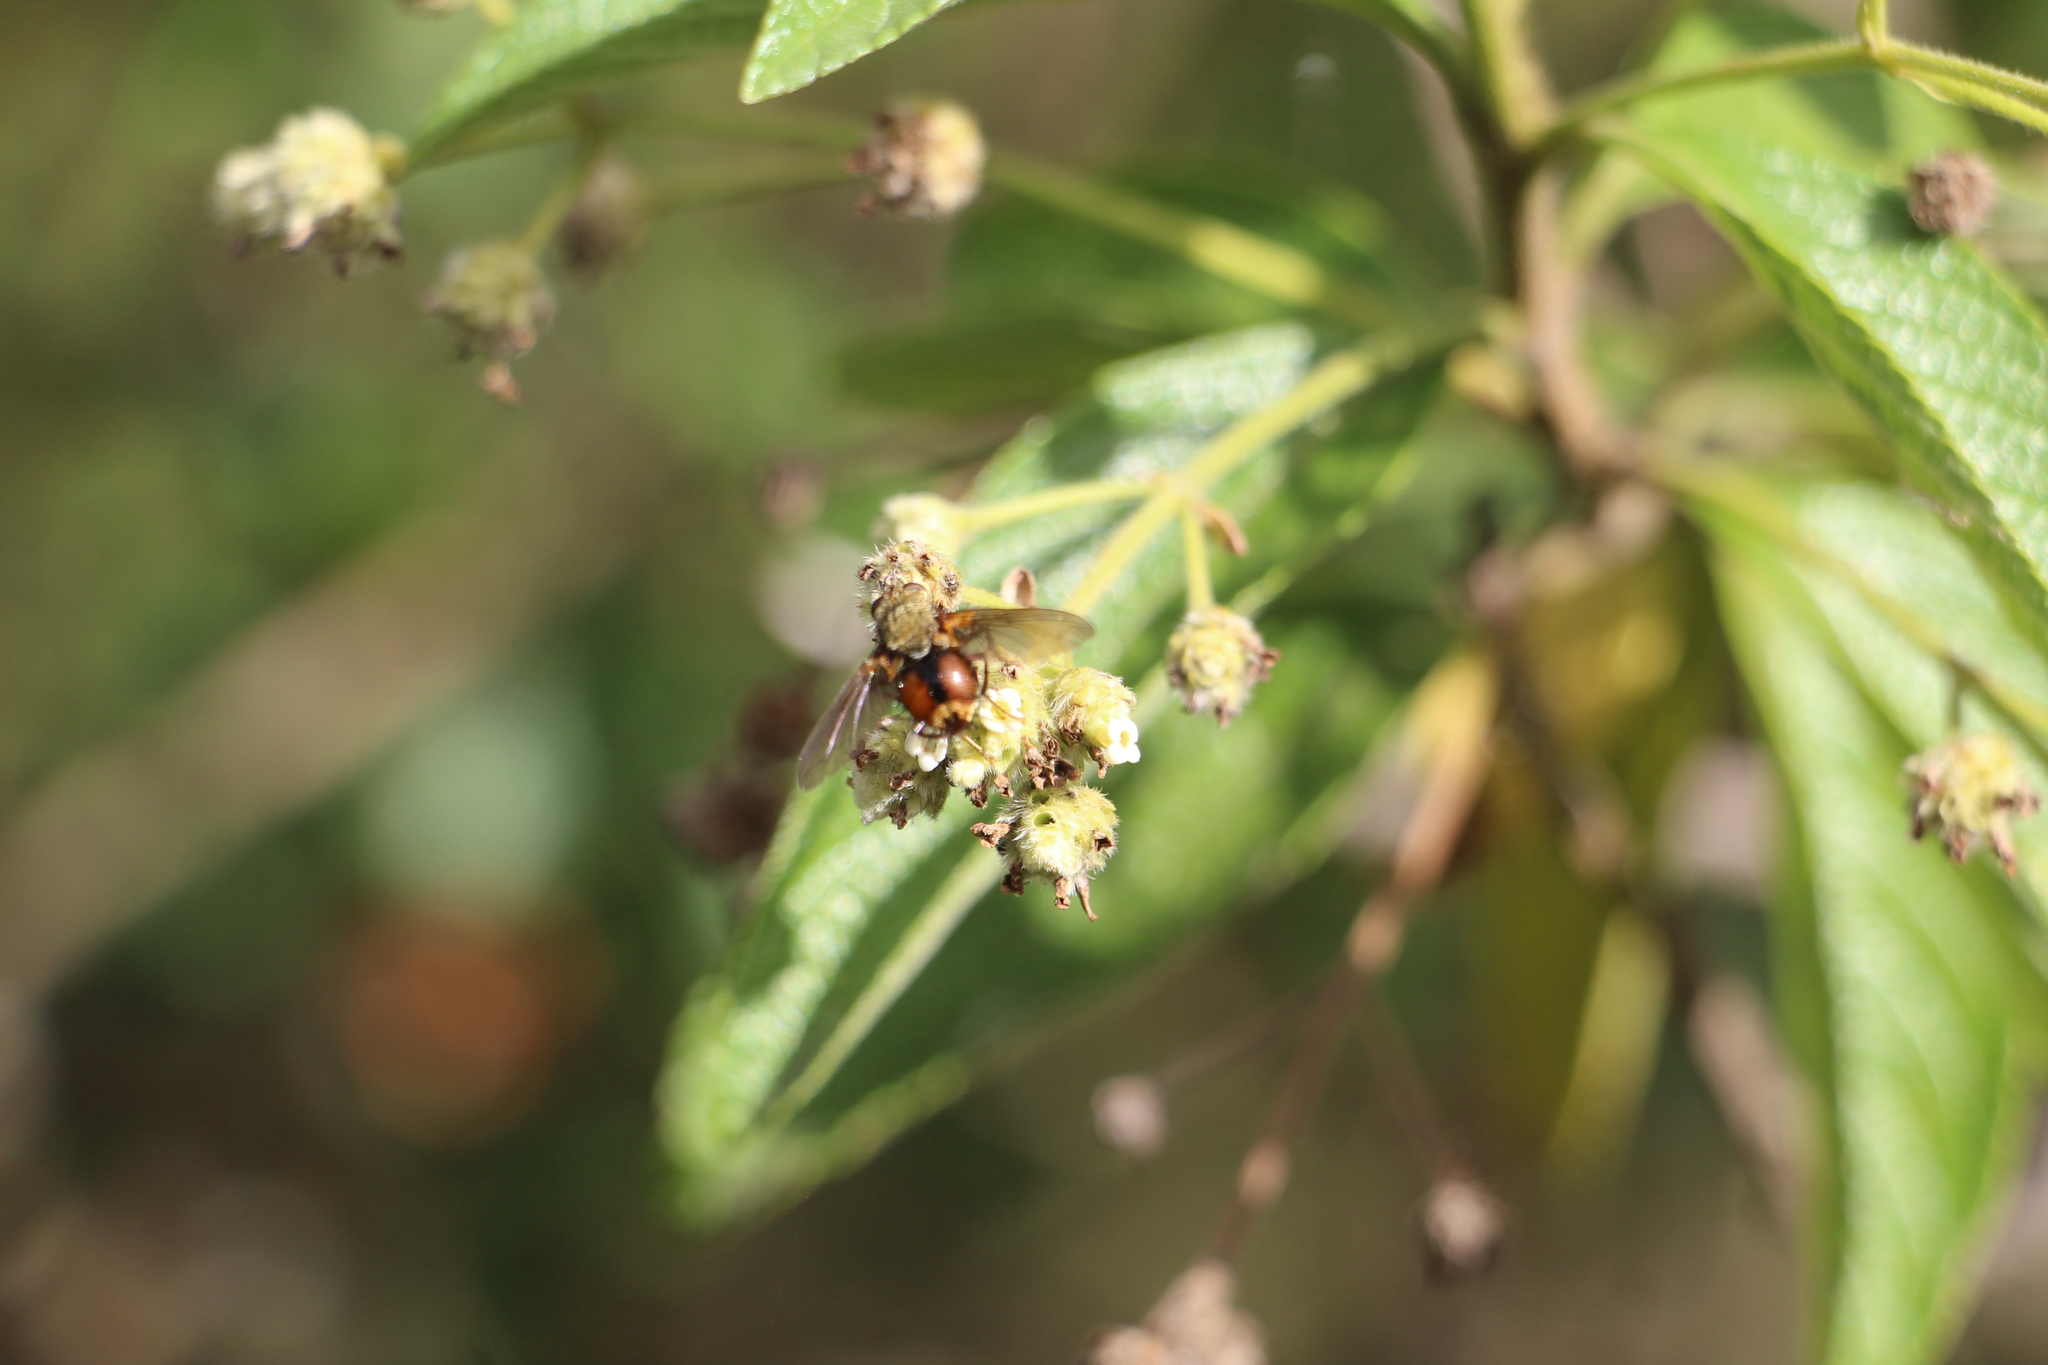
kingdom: Plantae
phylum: Tracheophyta
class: Magnoliopsida
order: Lamiales
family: Verbenaceae
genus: Lippia
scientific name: Lippia hirsuta
